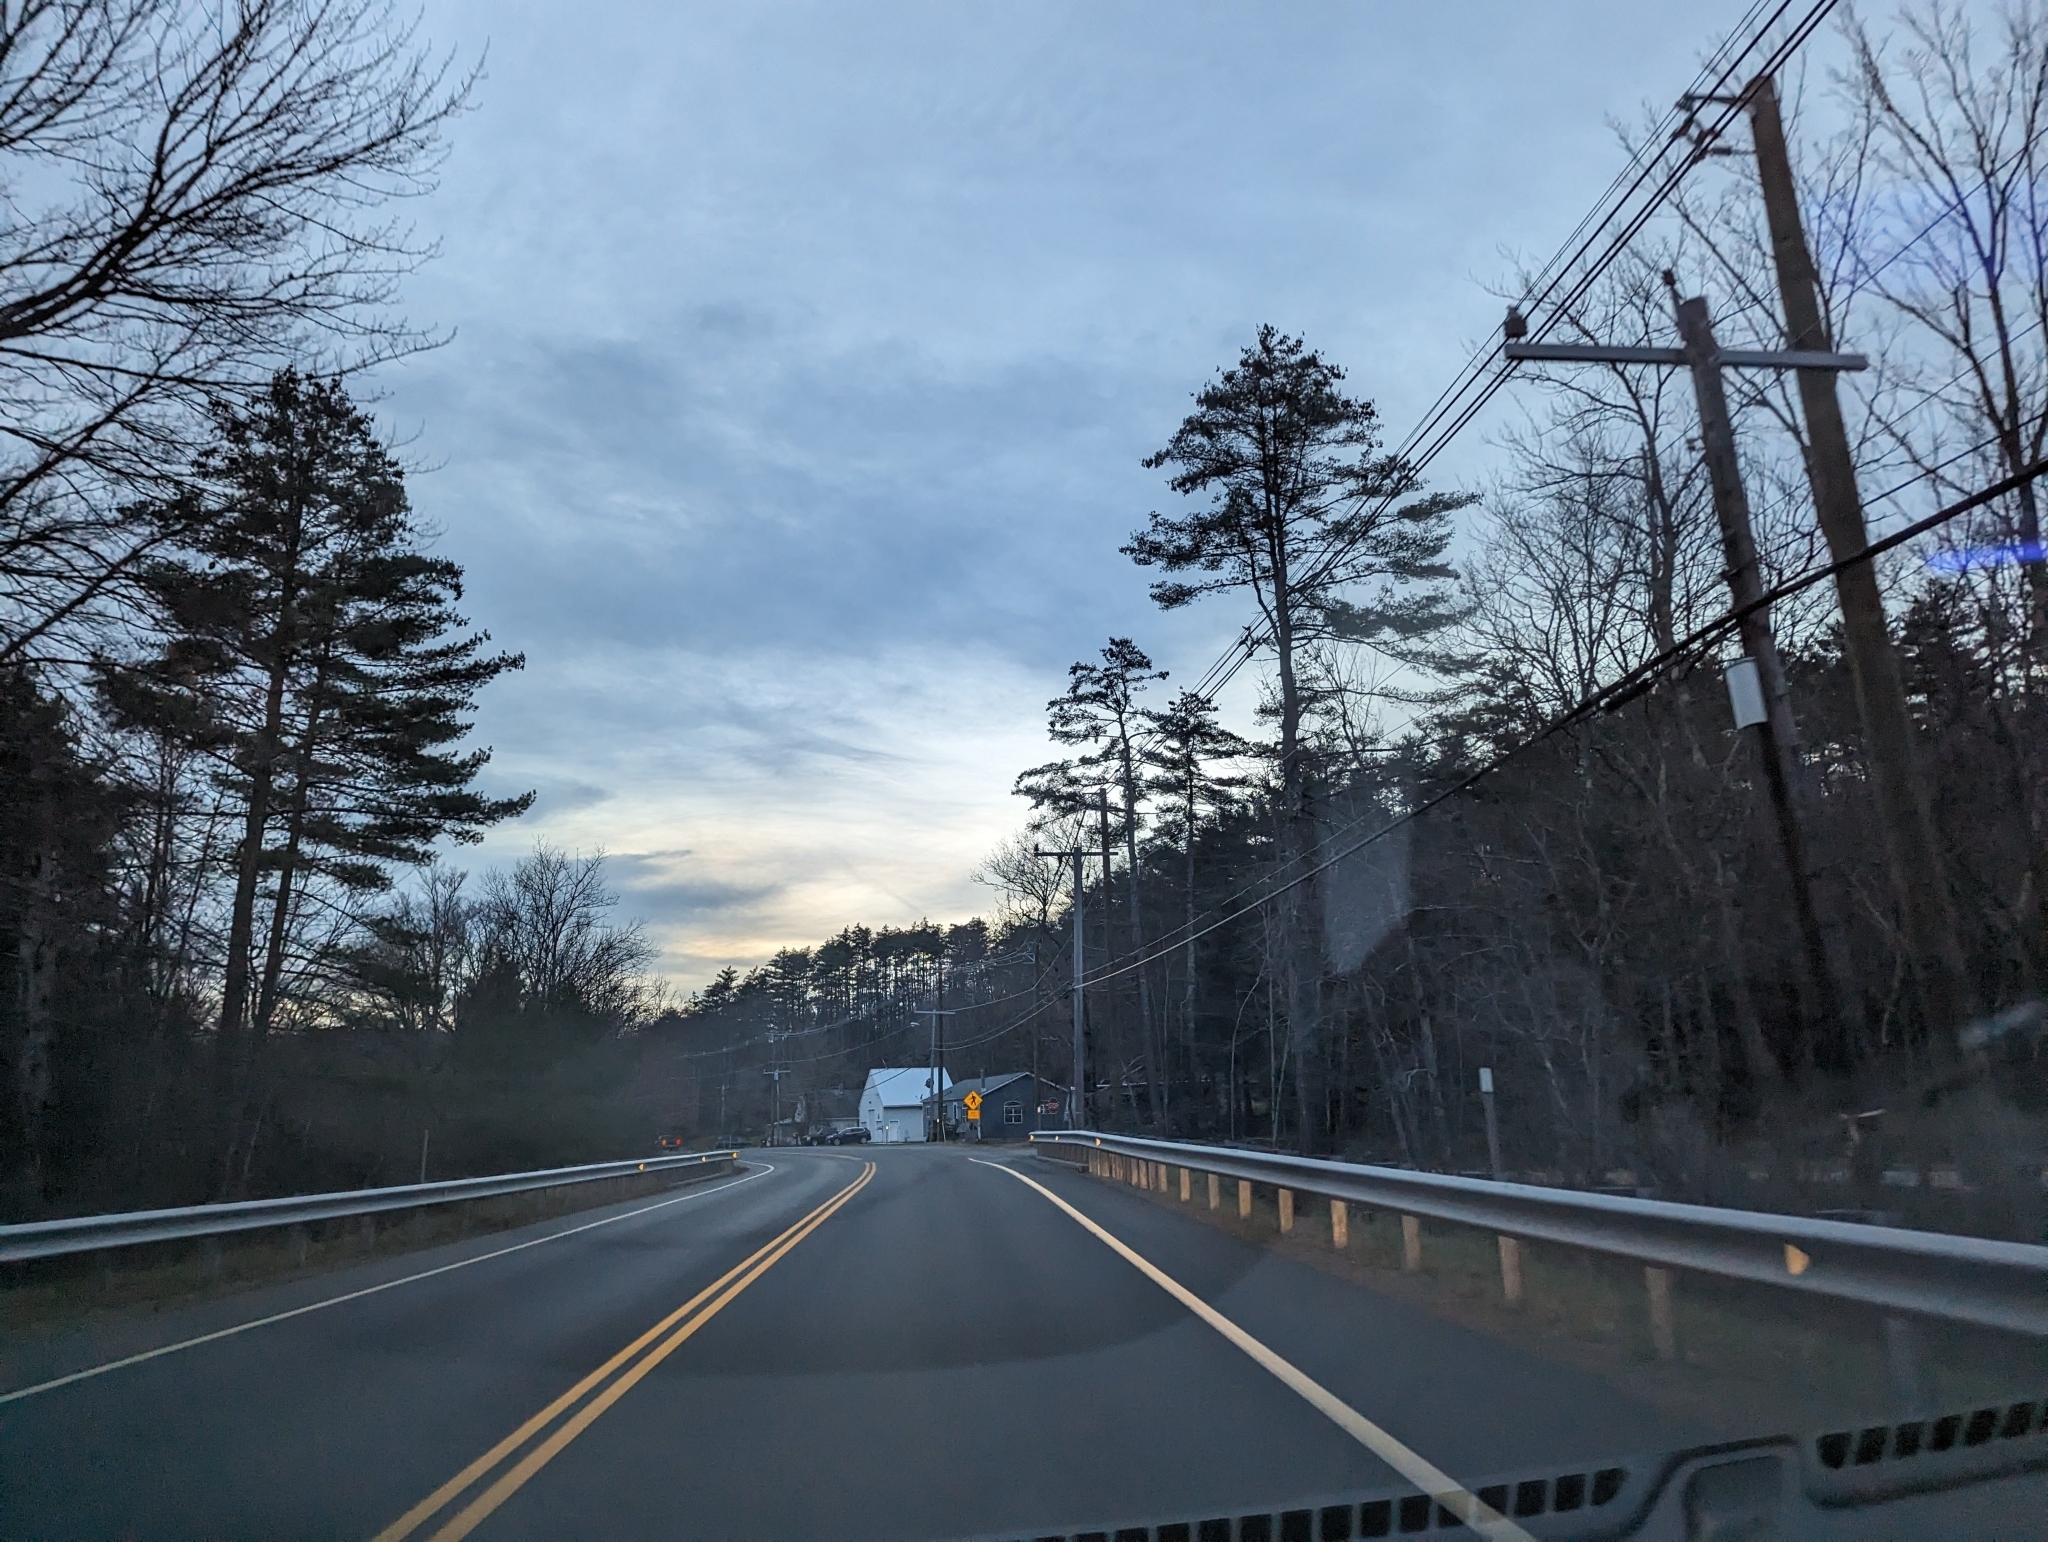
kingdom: Plantae
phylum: Tracheophyta
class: Pinopsida
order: Pinales
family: Pinaceae
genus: Pinus
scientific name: Pinus strobus
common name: Weymouth pine
